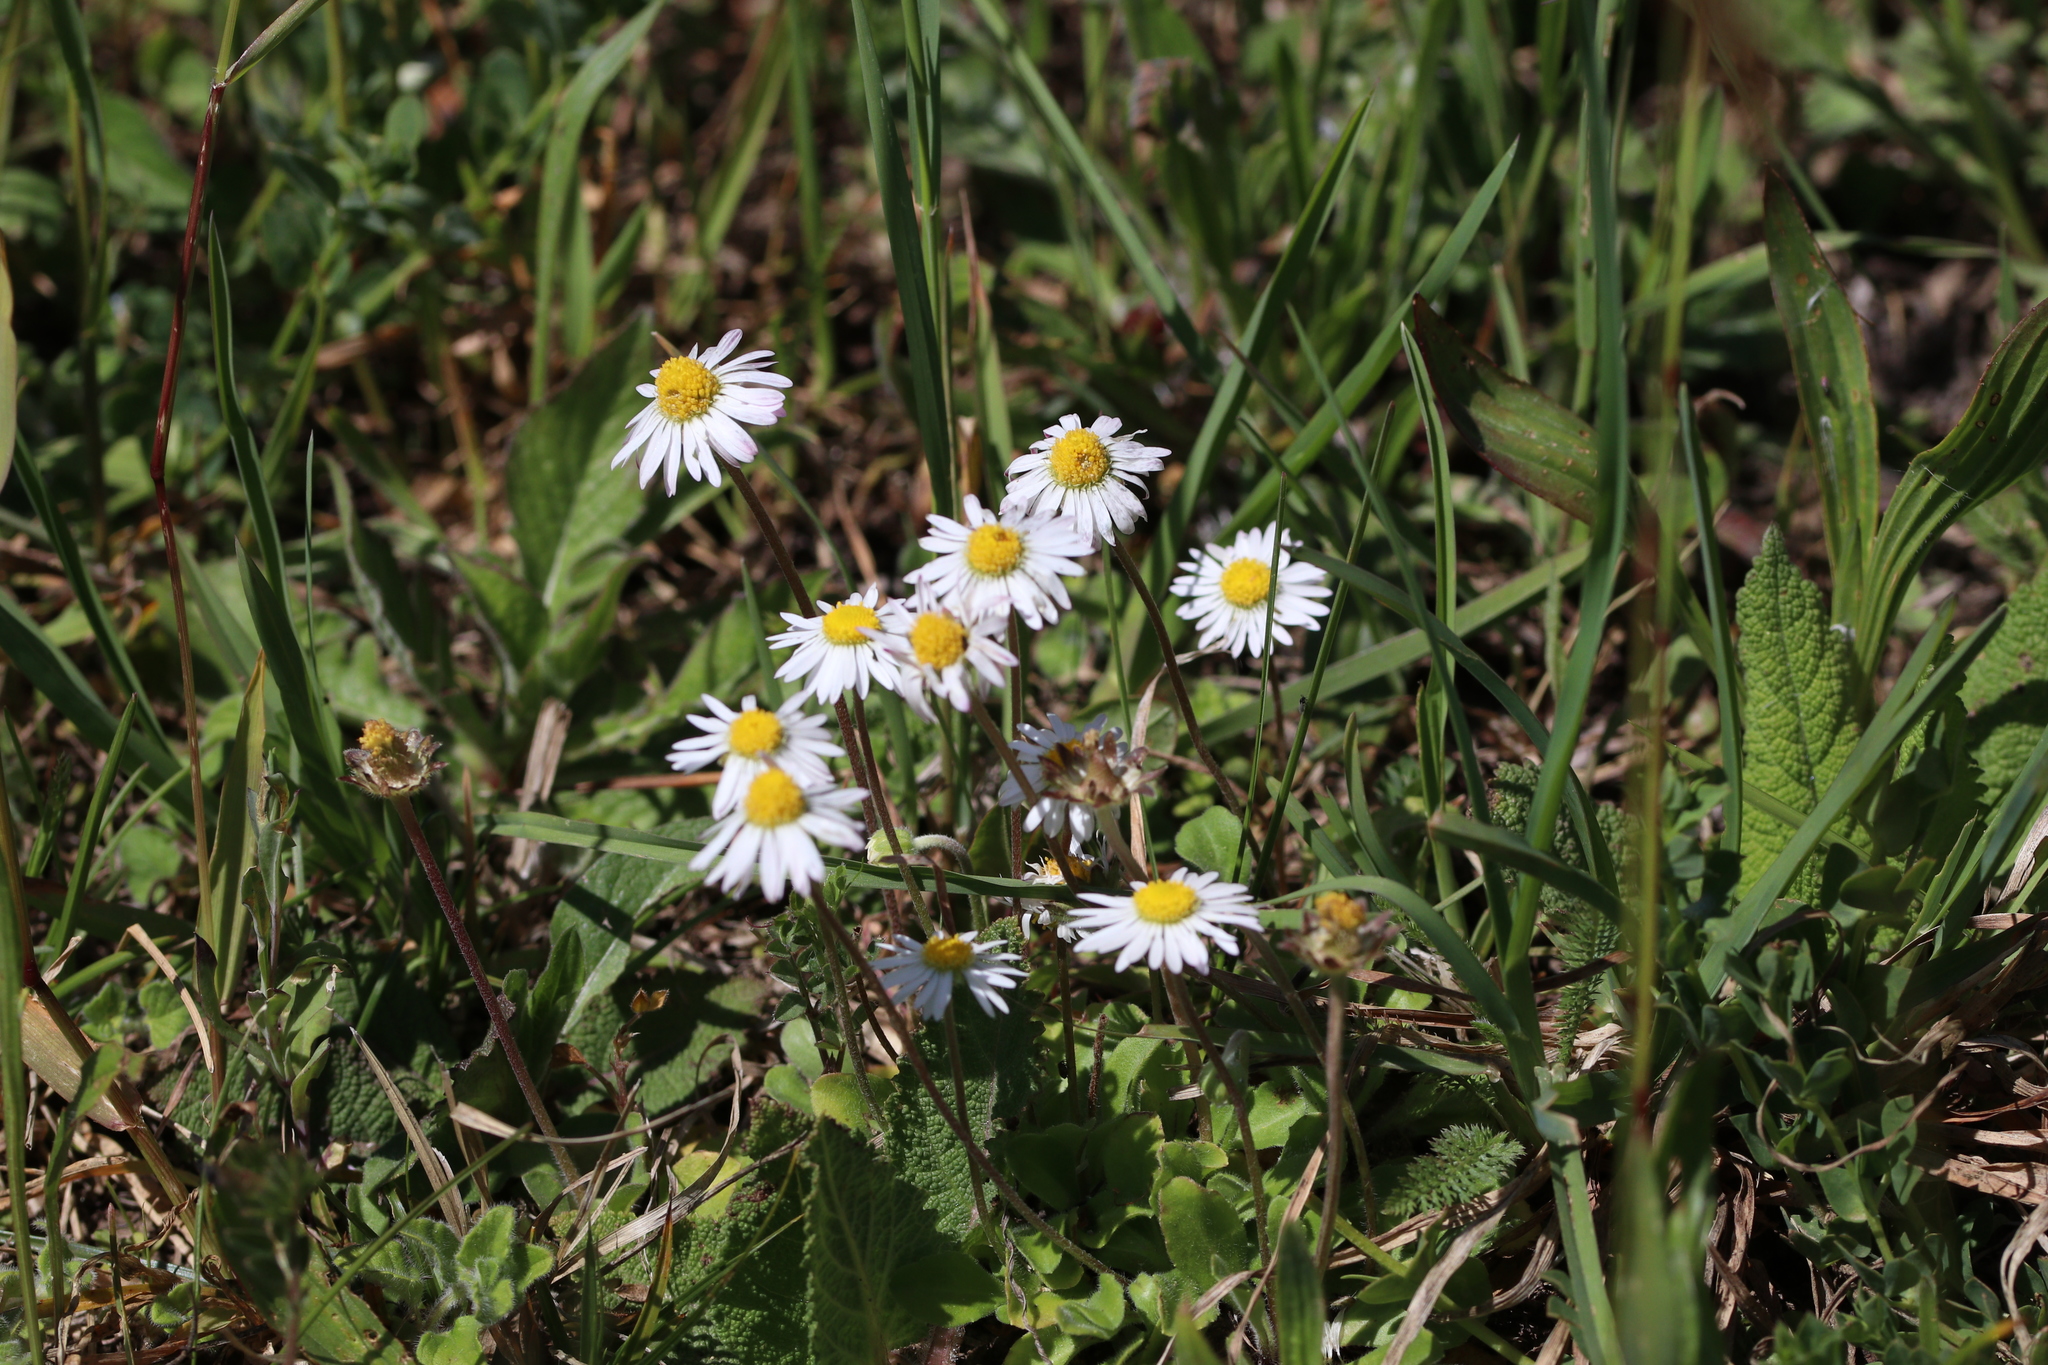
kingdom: Plantae
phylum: Tracheophyta
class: Magnoliopsida
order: Asterales
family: Asteraceae
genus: Bellis
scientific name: Bellis perennis
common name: Lawndaisy
